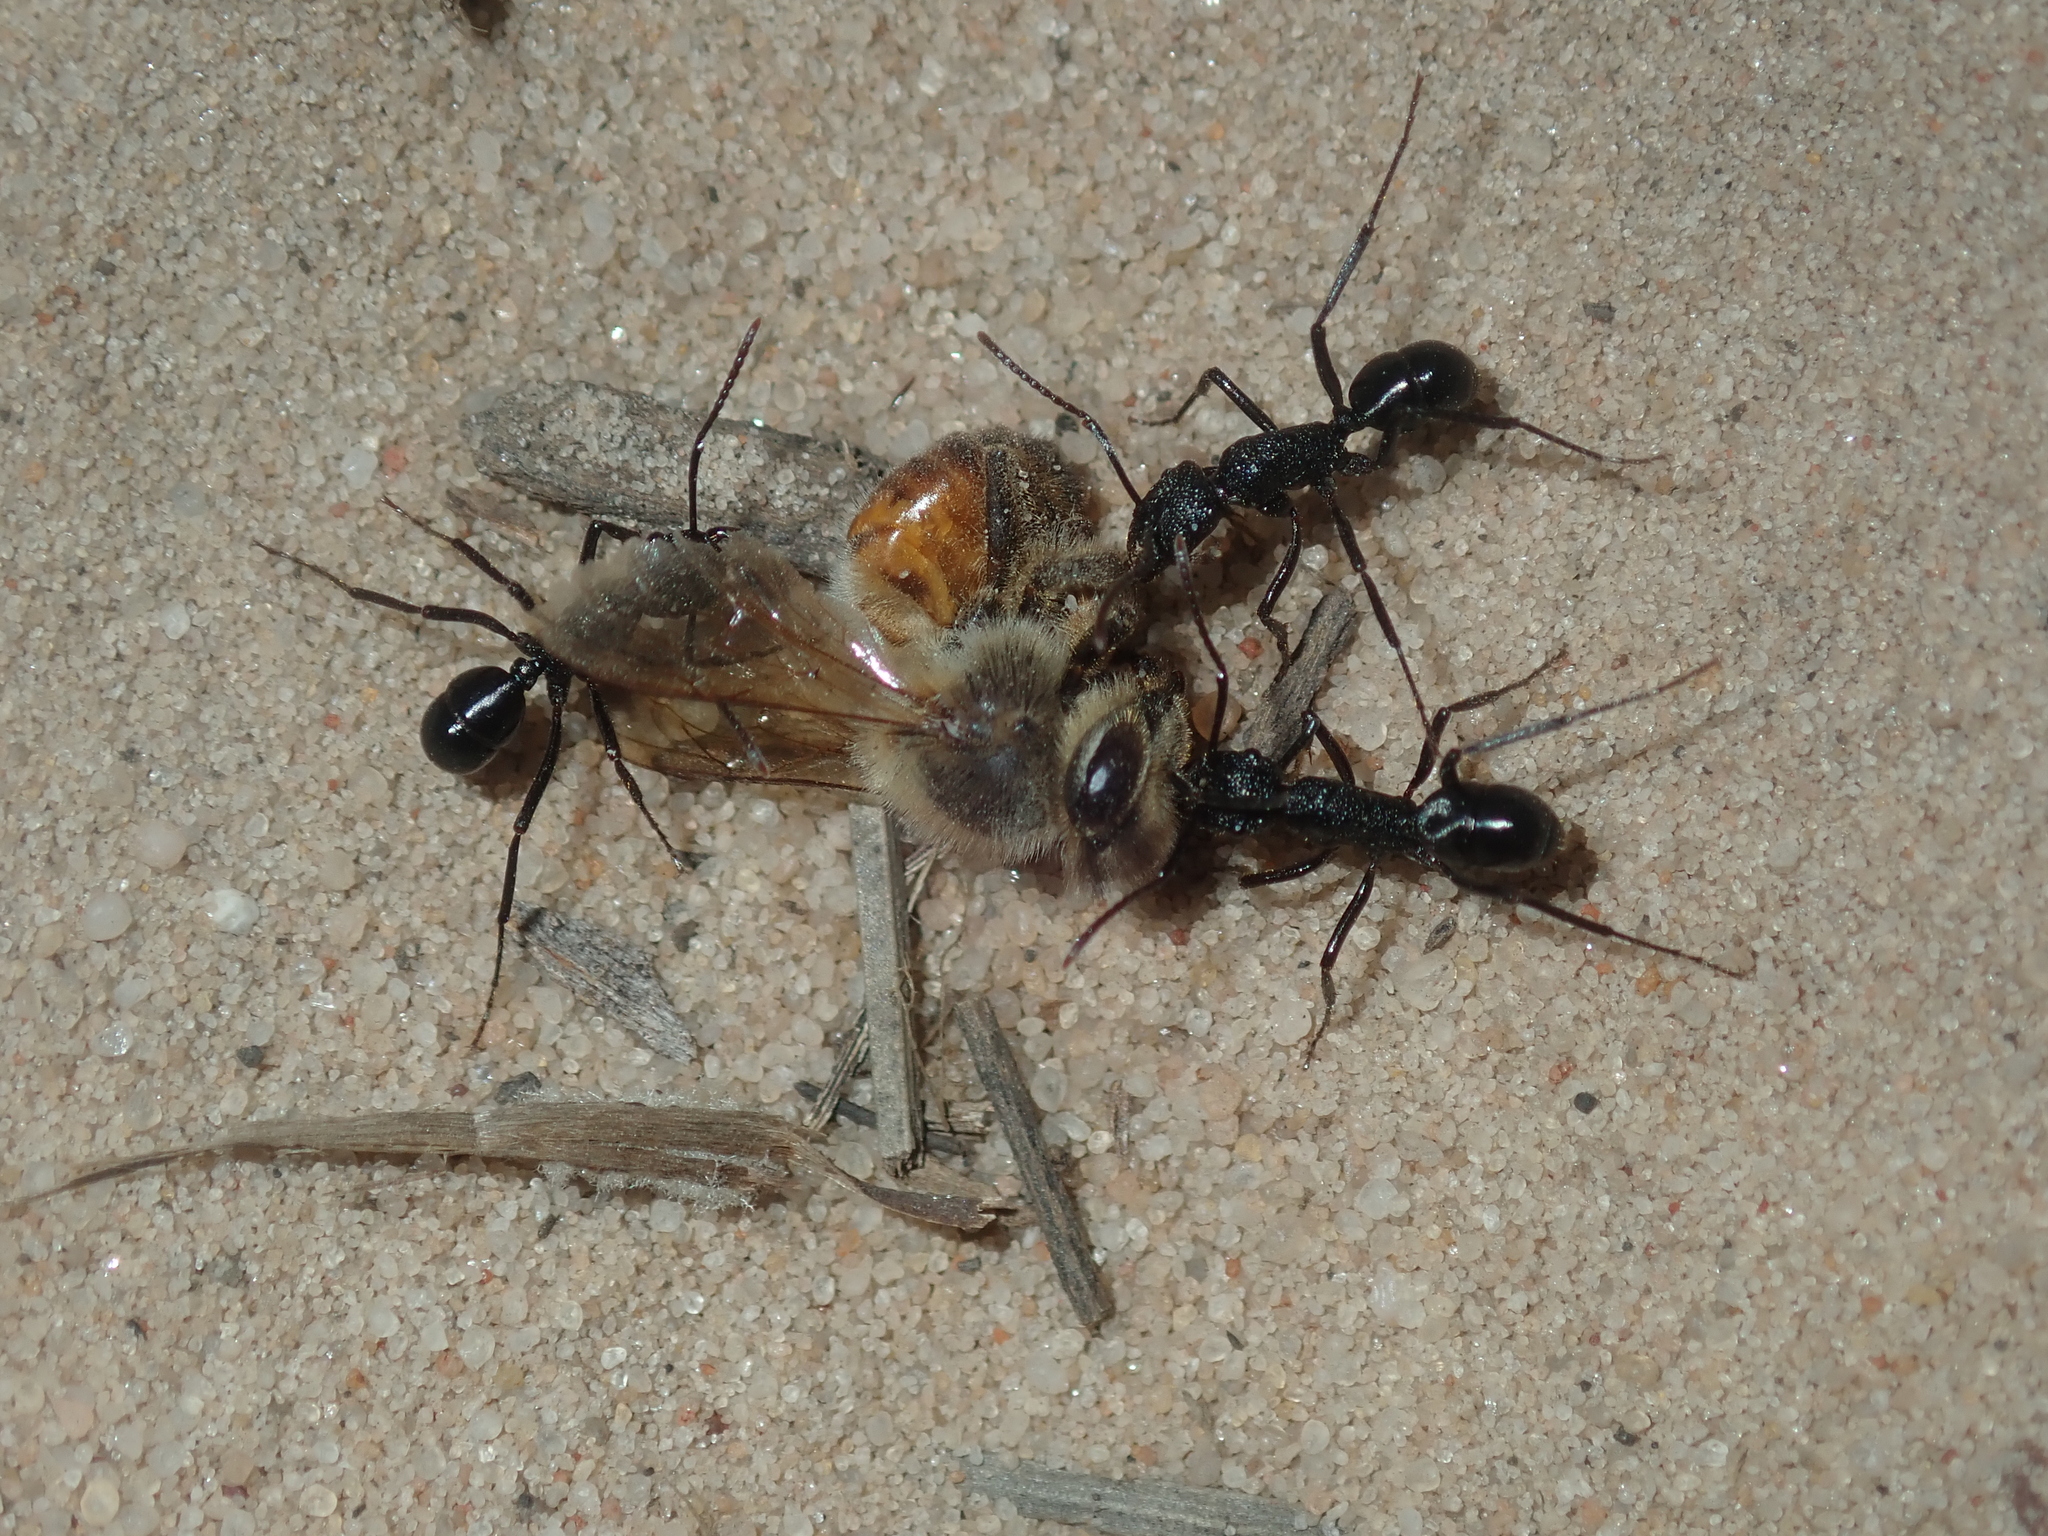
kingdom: Animalia
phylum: Arthropoda
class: Insecta
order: Hymenoptera
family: Apidae
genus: Apis
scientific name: Apis mellifera
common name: Honey bee
